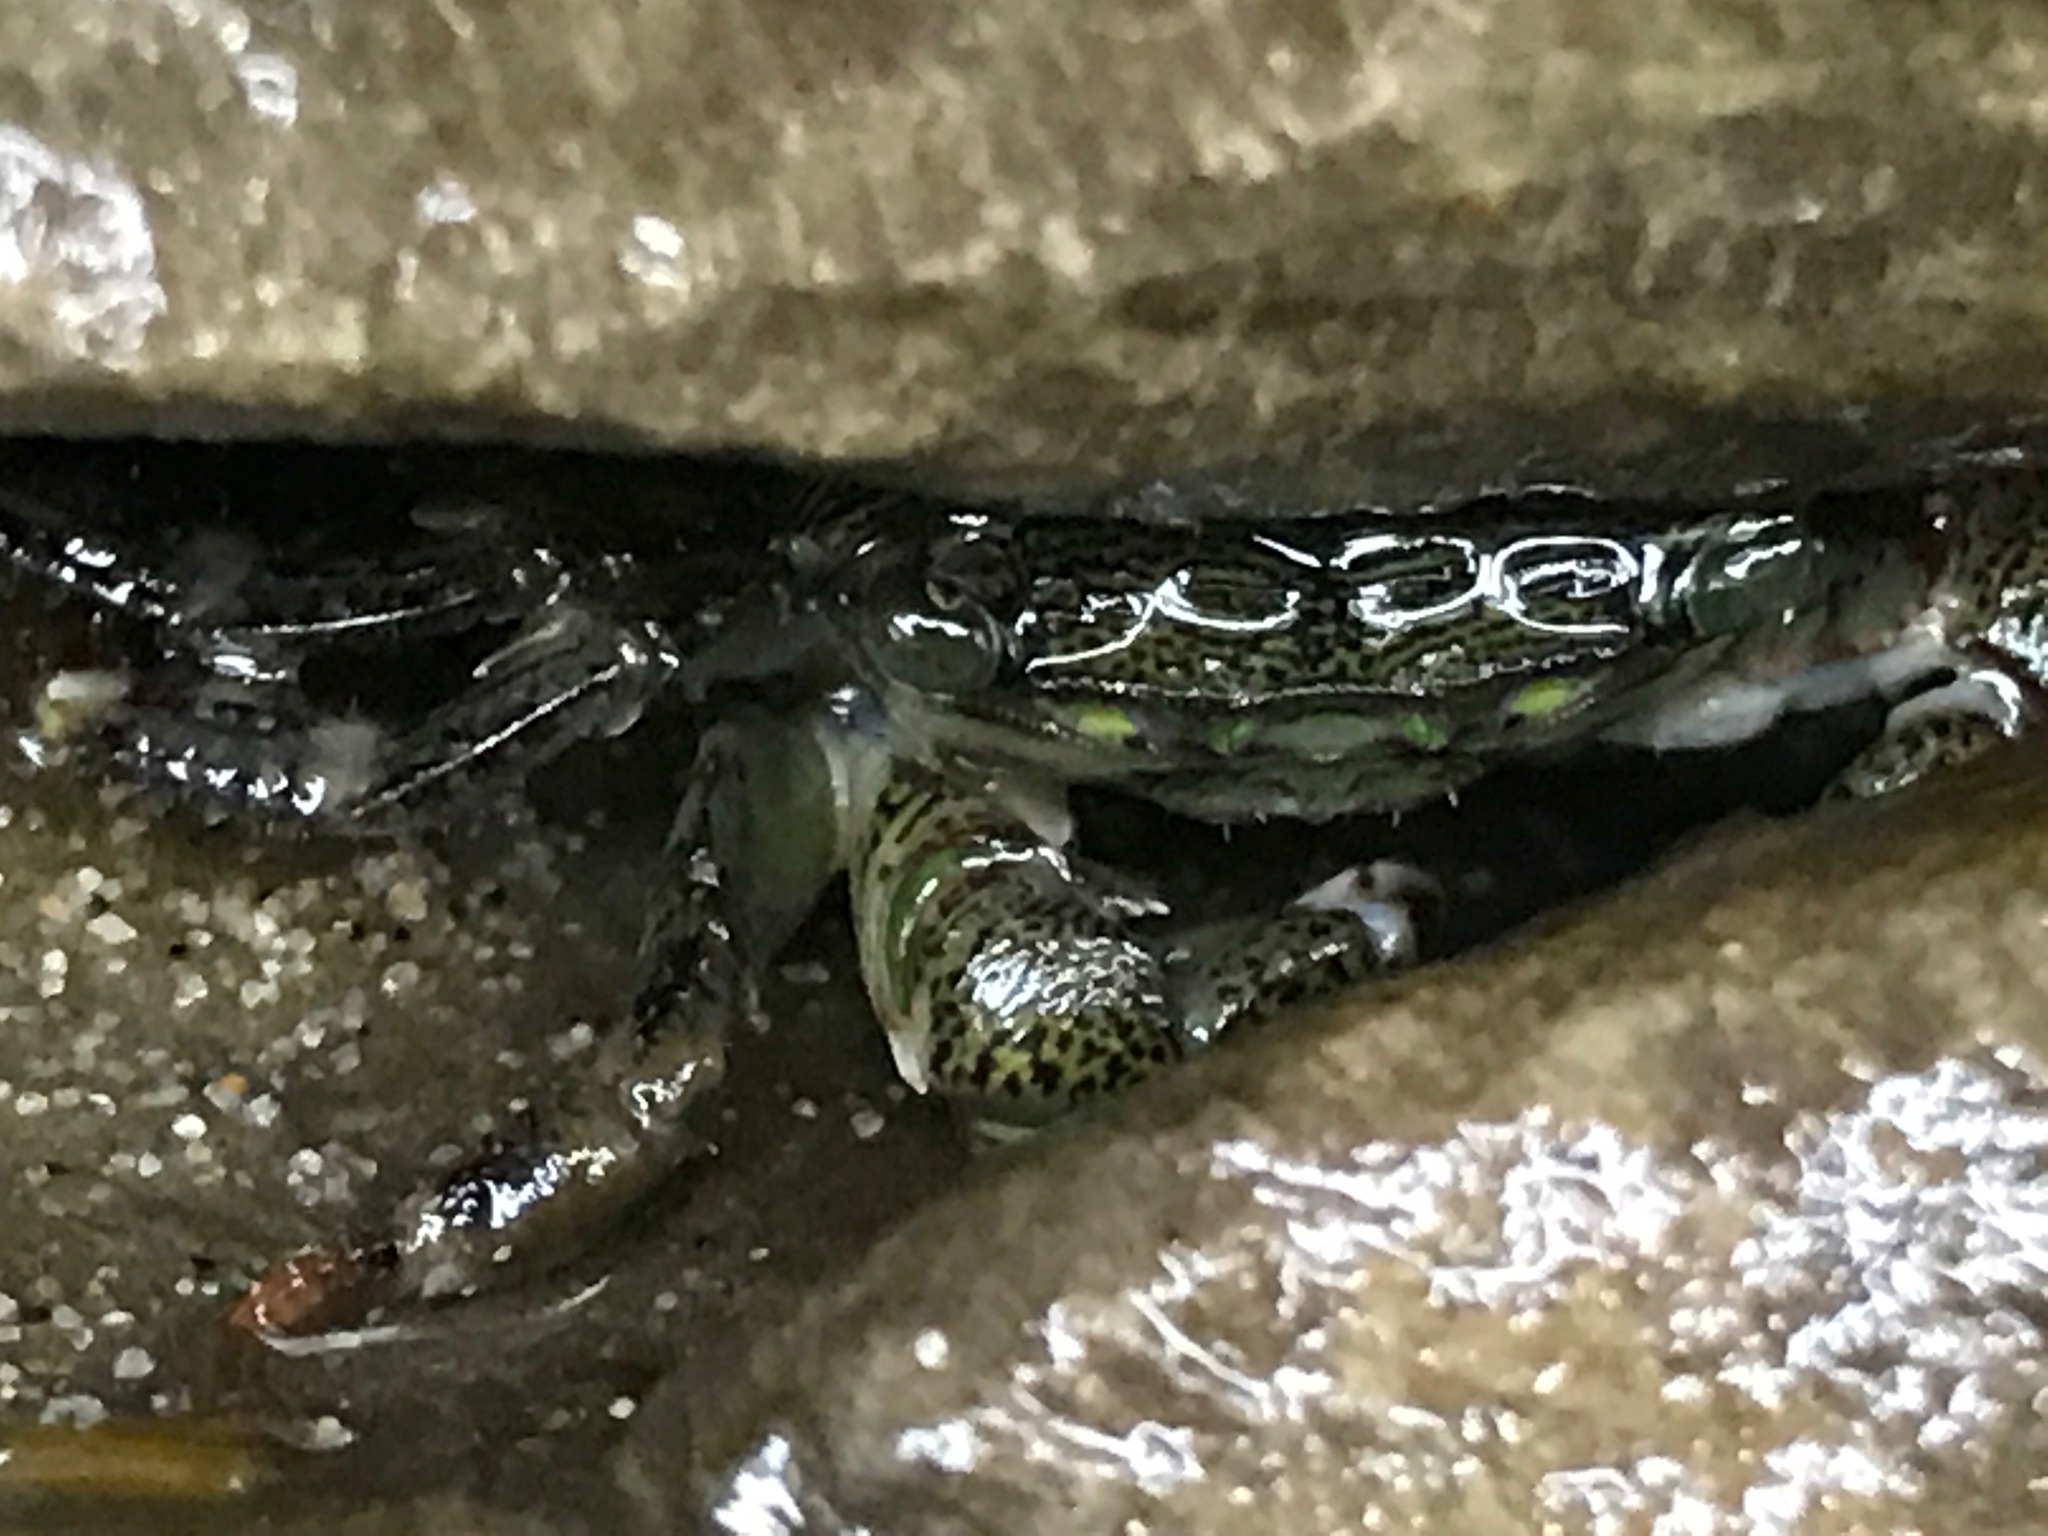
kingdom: Animalia
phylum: Arthropoda
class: Malacostraca
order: Decapoda
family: Grapsidae
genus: Pachygrapsus
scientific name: Pachygrapsus crassipes
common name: Striped shore crab
